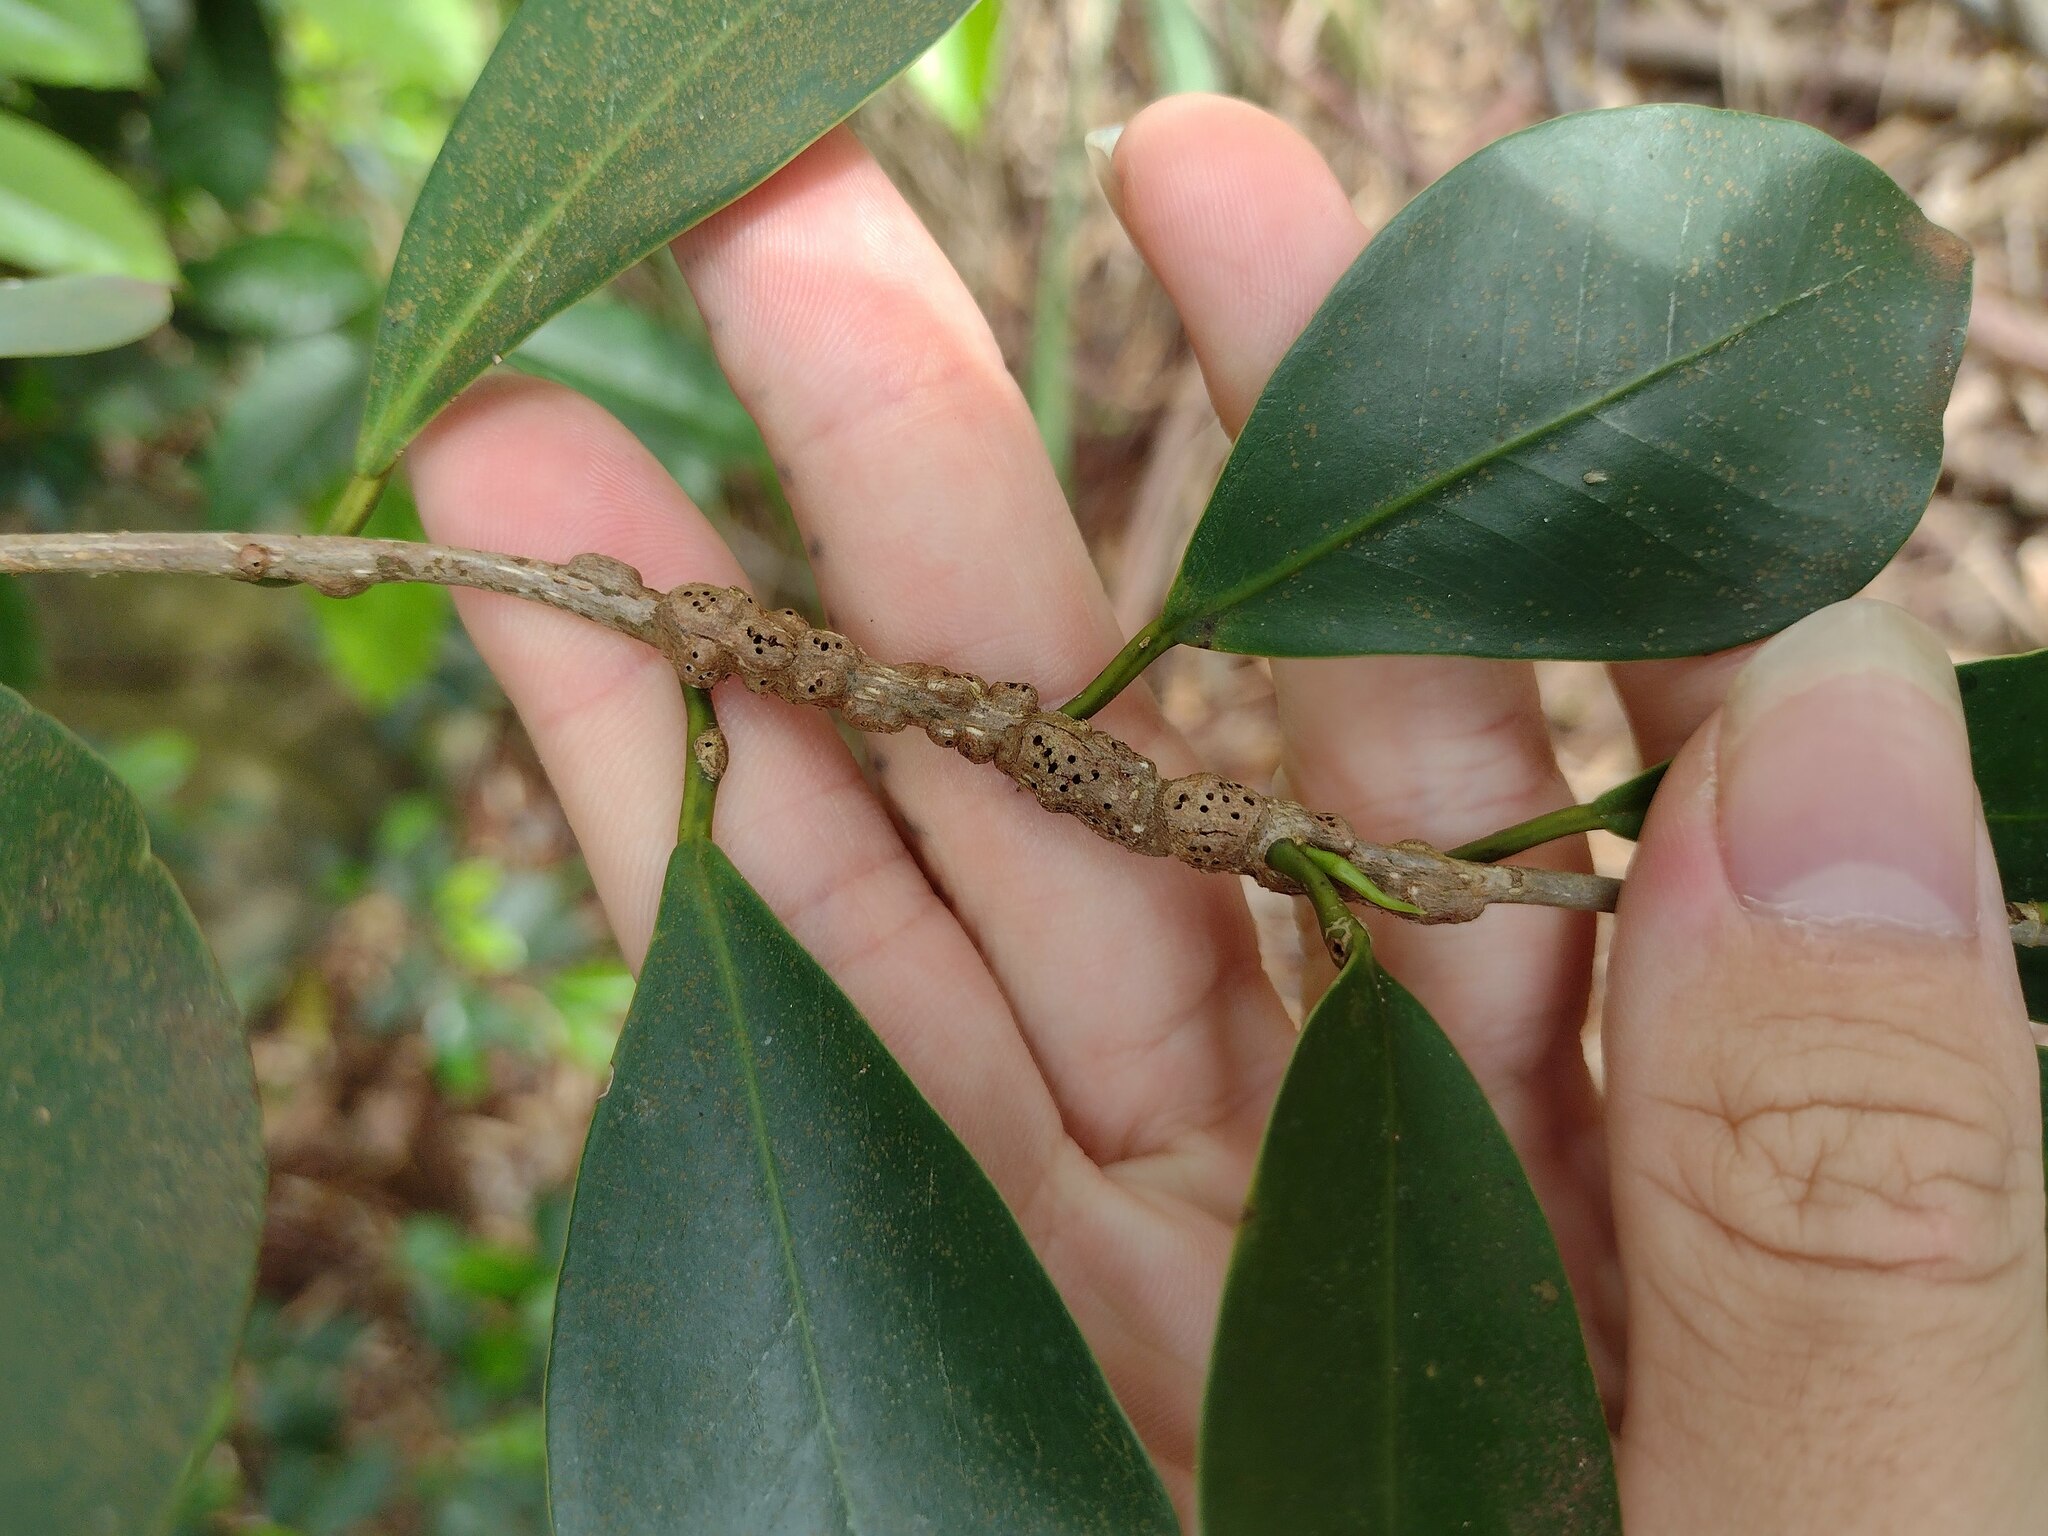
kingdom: Animalia
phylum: Arthropoda
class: Insecta
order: Hymenoptera
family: Agaonidae
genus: Josephiella
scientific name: Josephiella
